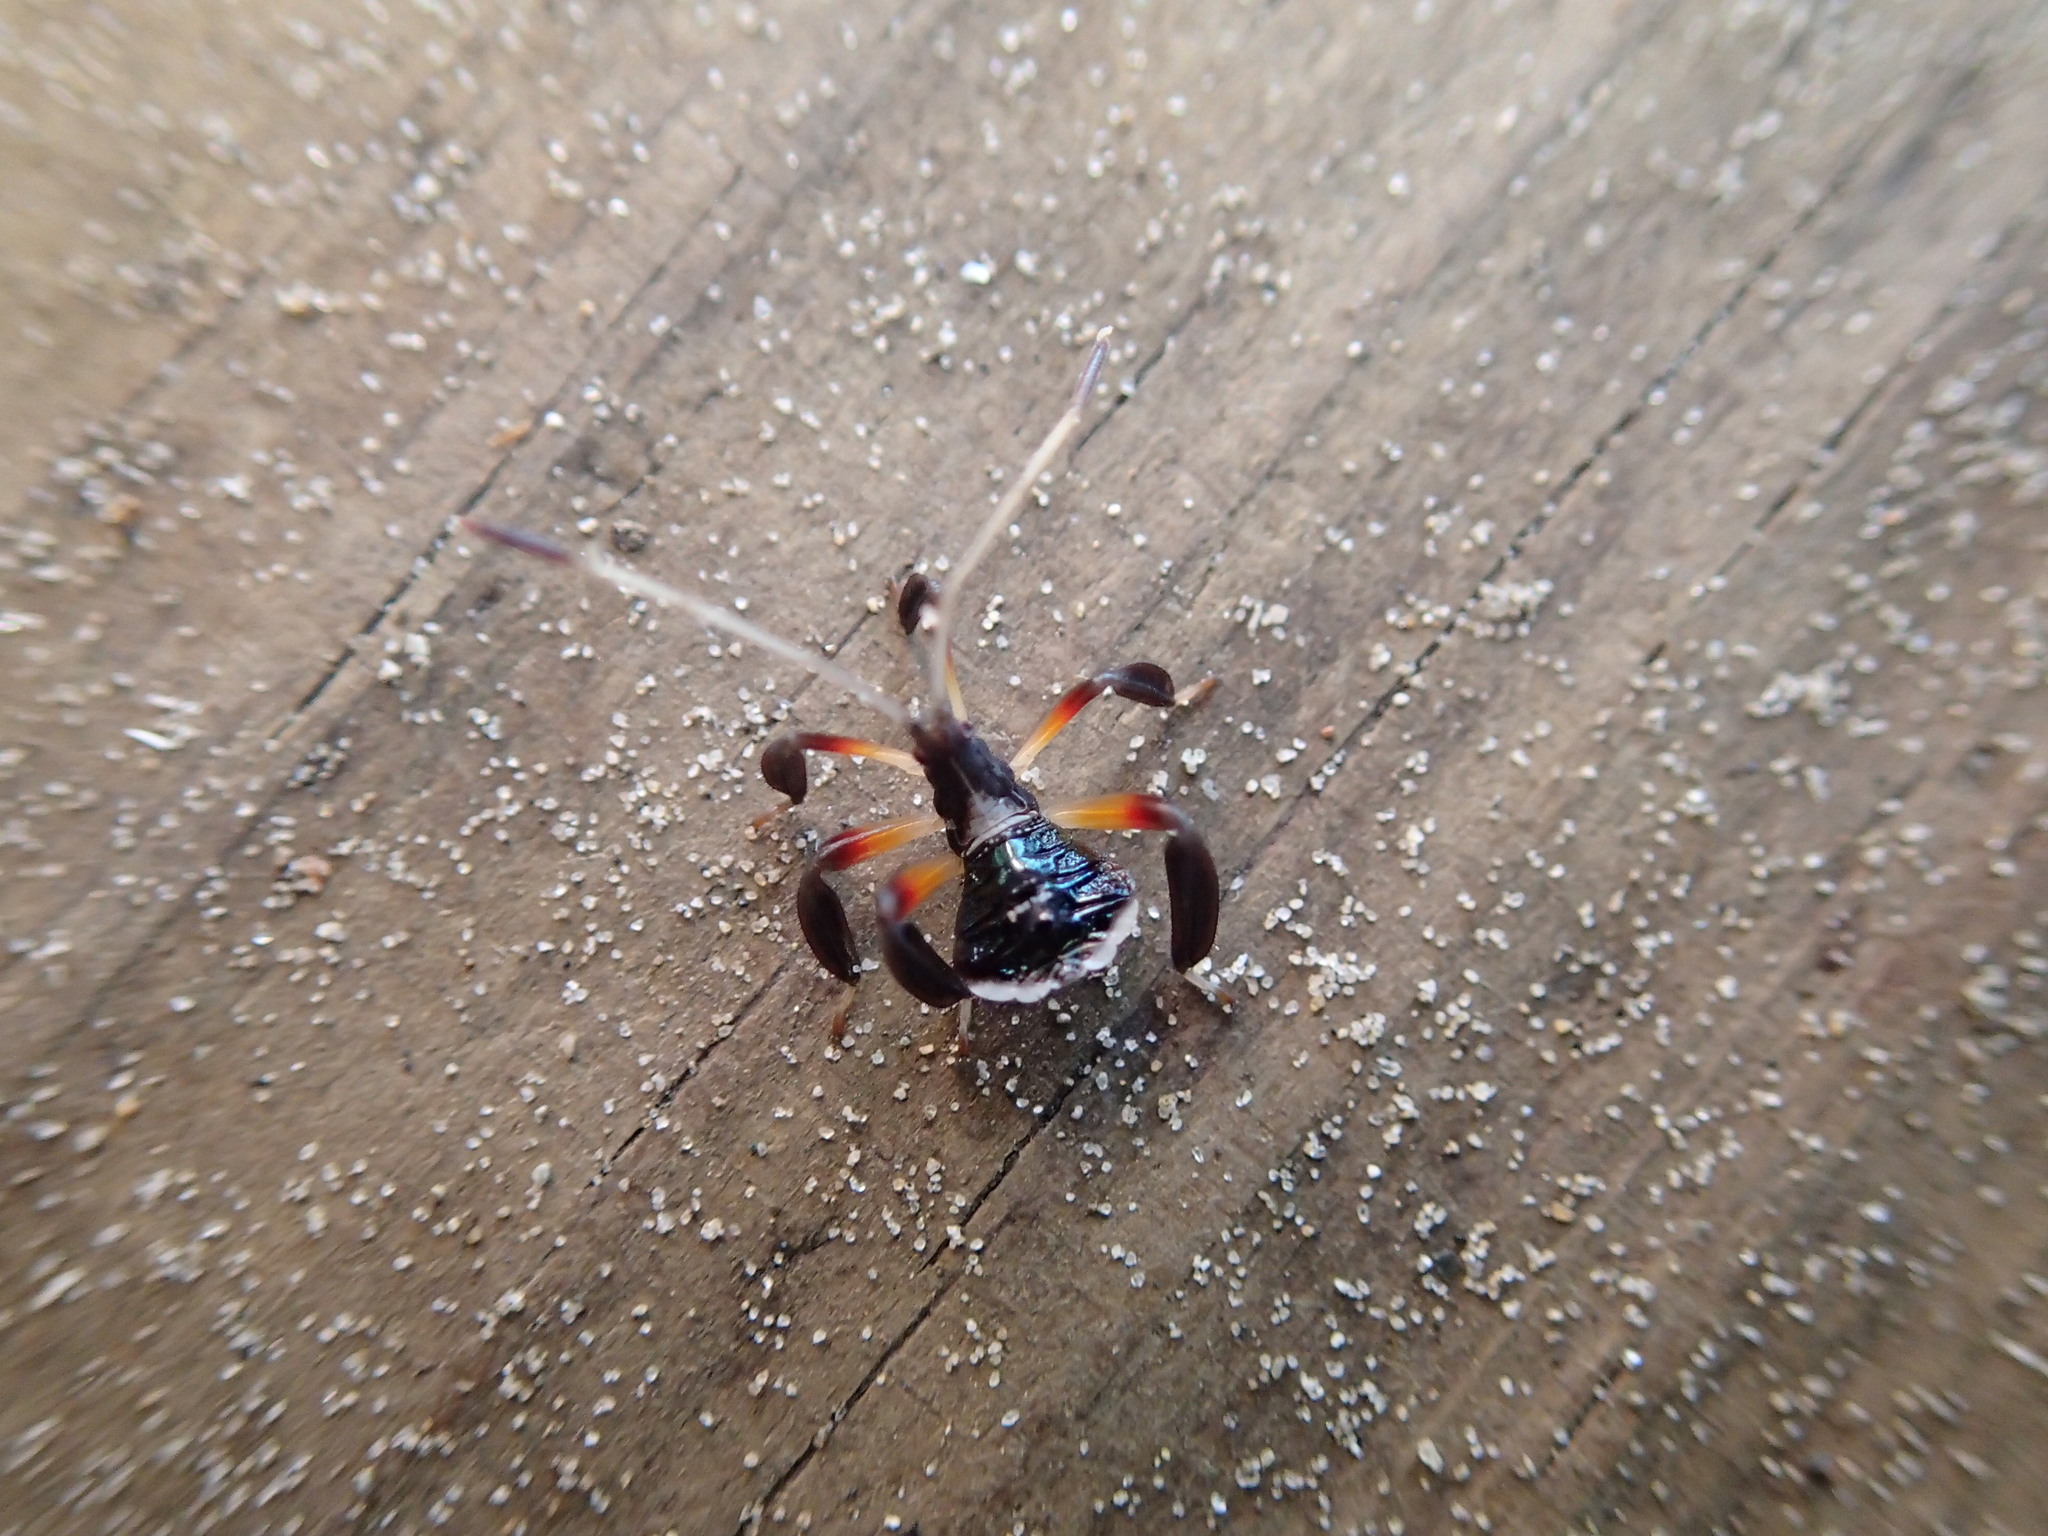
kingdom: Animalia
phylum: Arthropoda
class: Insecta
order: Hemiptera
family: Coreidae
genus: Pternistria
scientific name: Pternistria bispina
